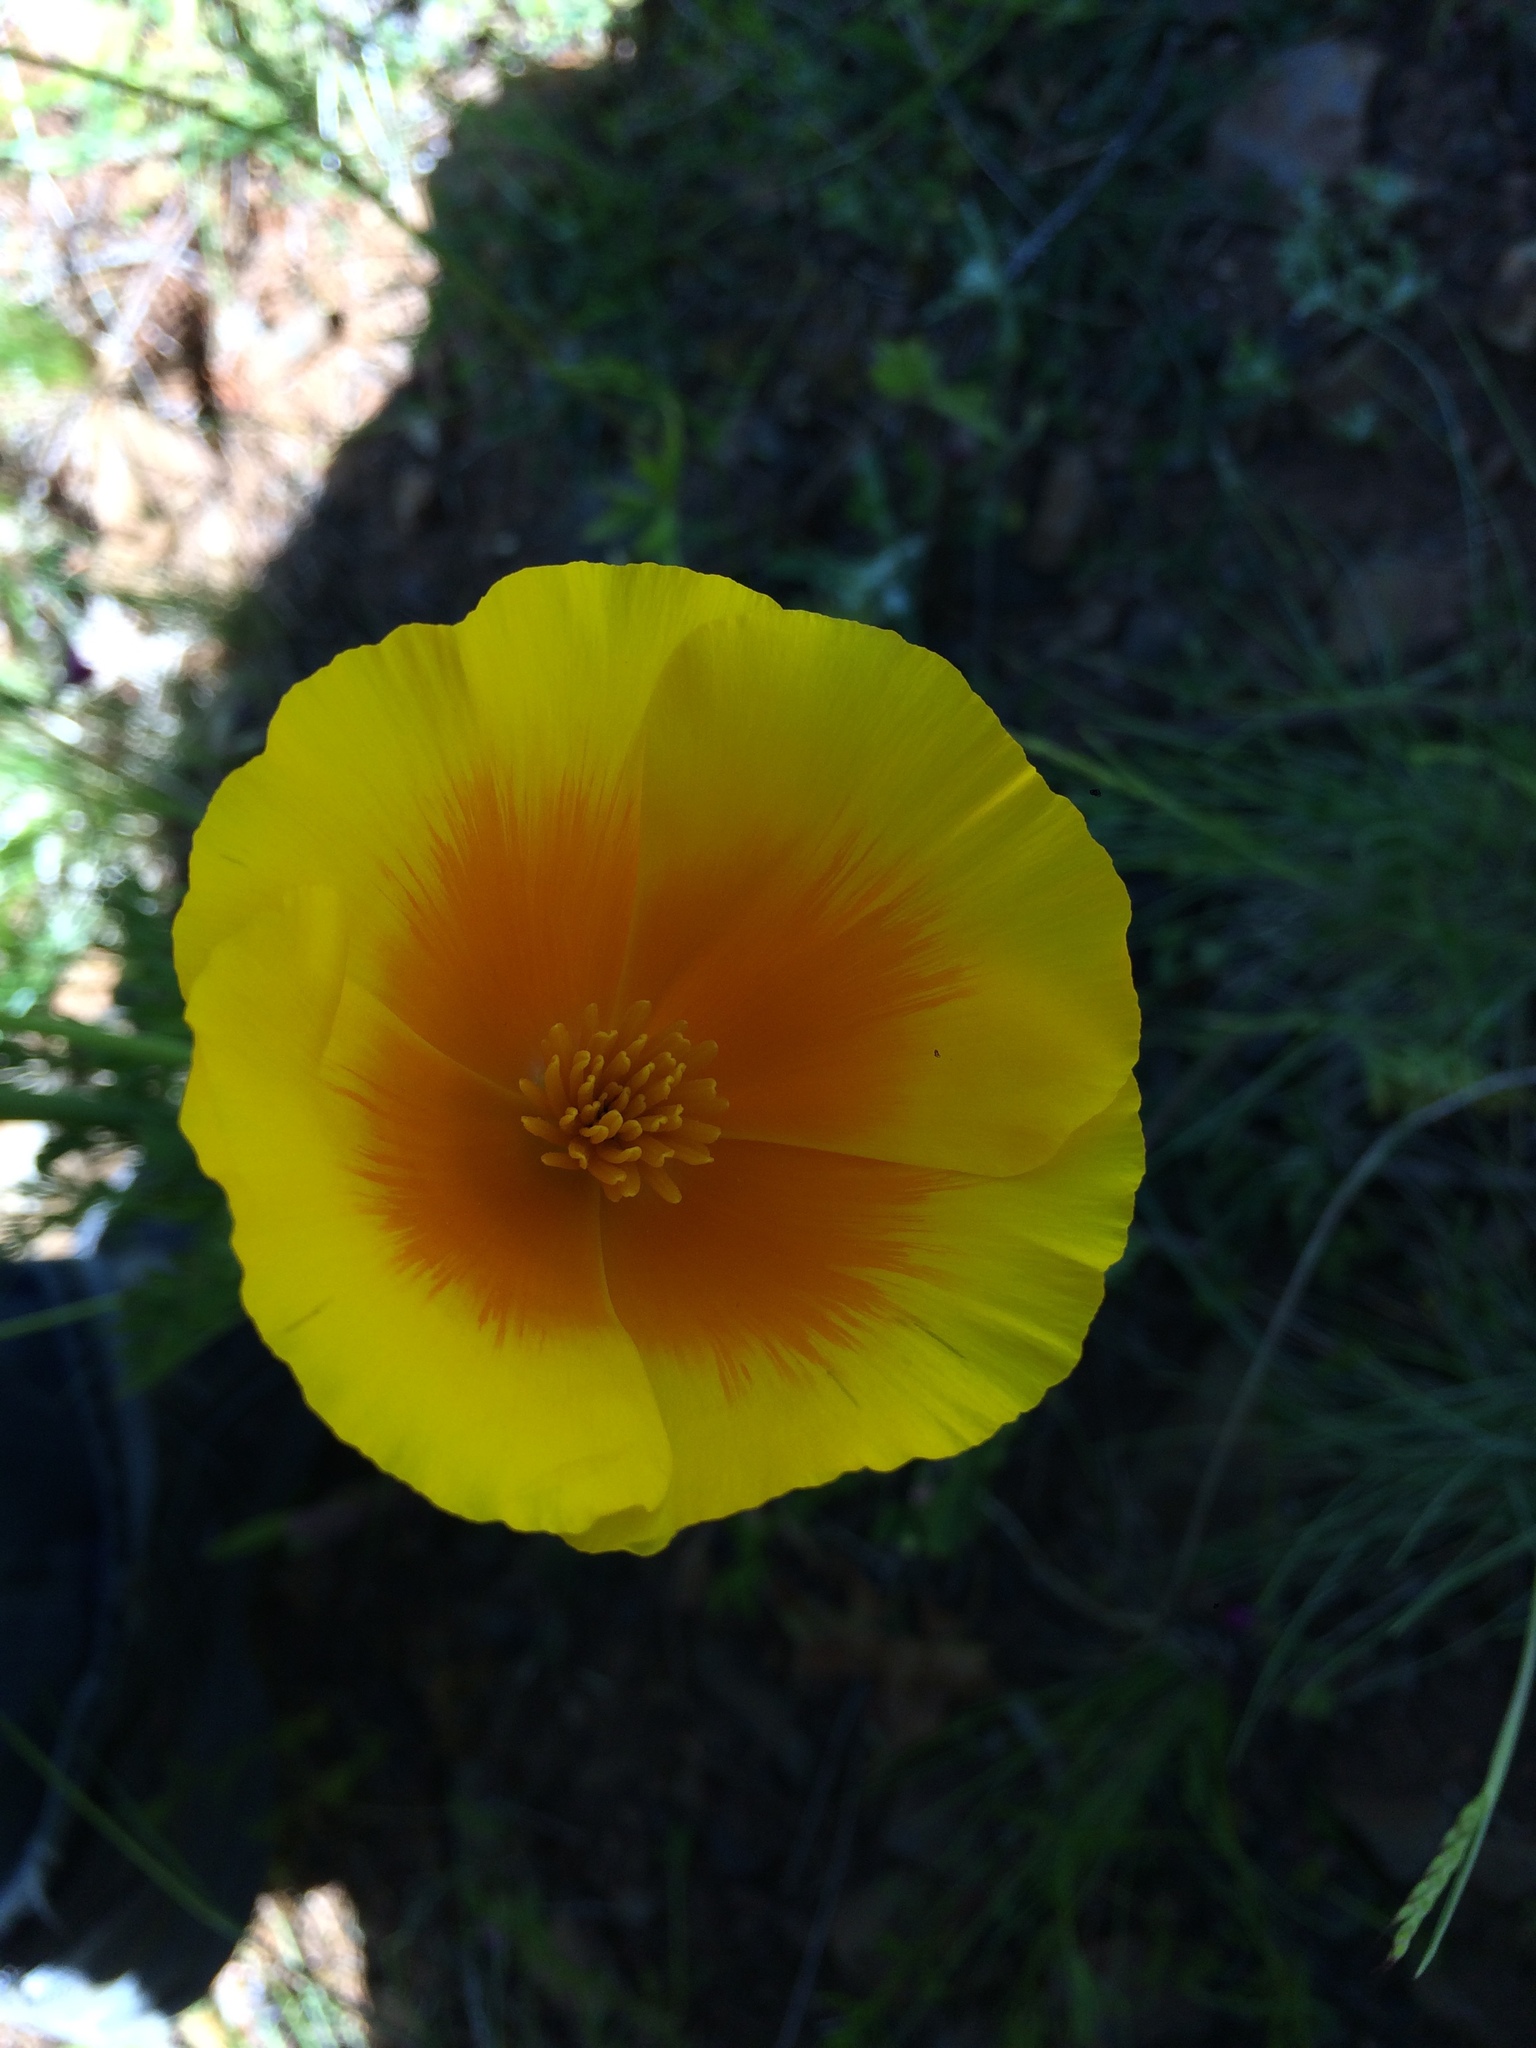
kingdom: Plantae
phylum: Tracheophyta
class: Magnoliopsida
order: Ranunculales
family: Papaveraceae
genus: Eschscholzia
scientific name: Eschscholzia californica
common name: California poppy
